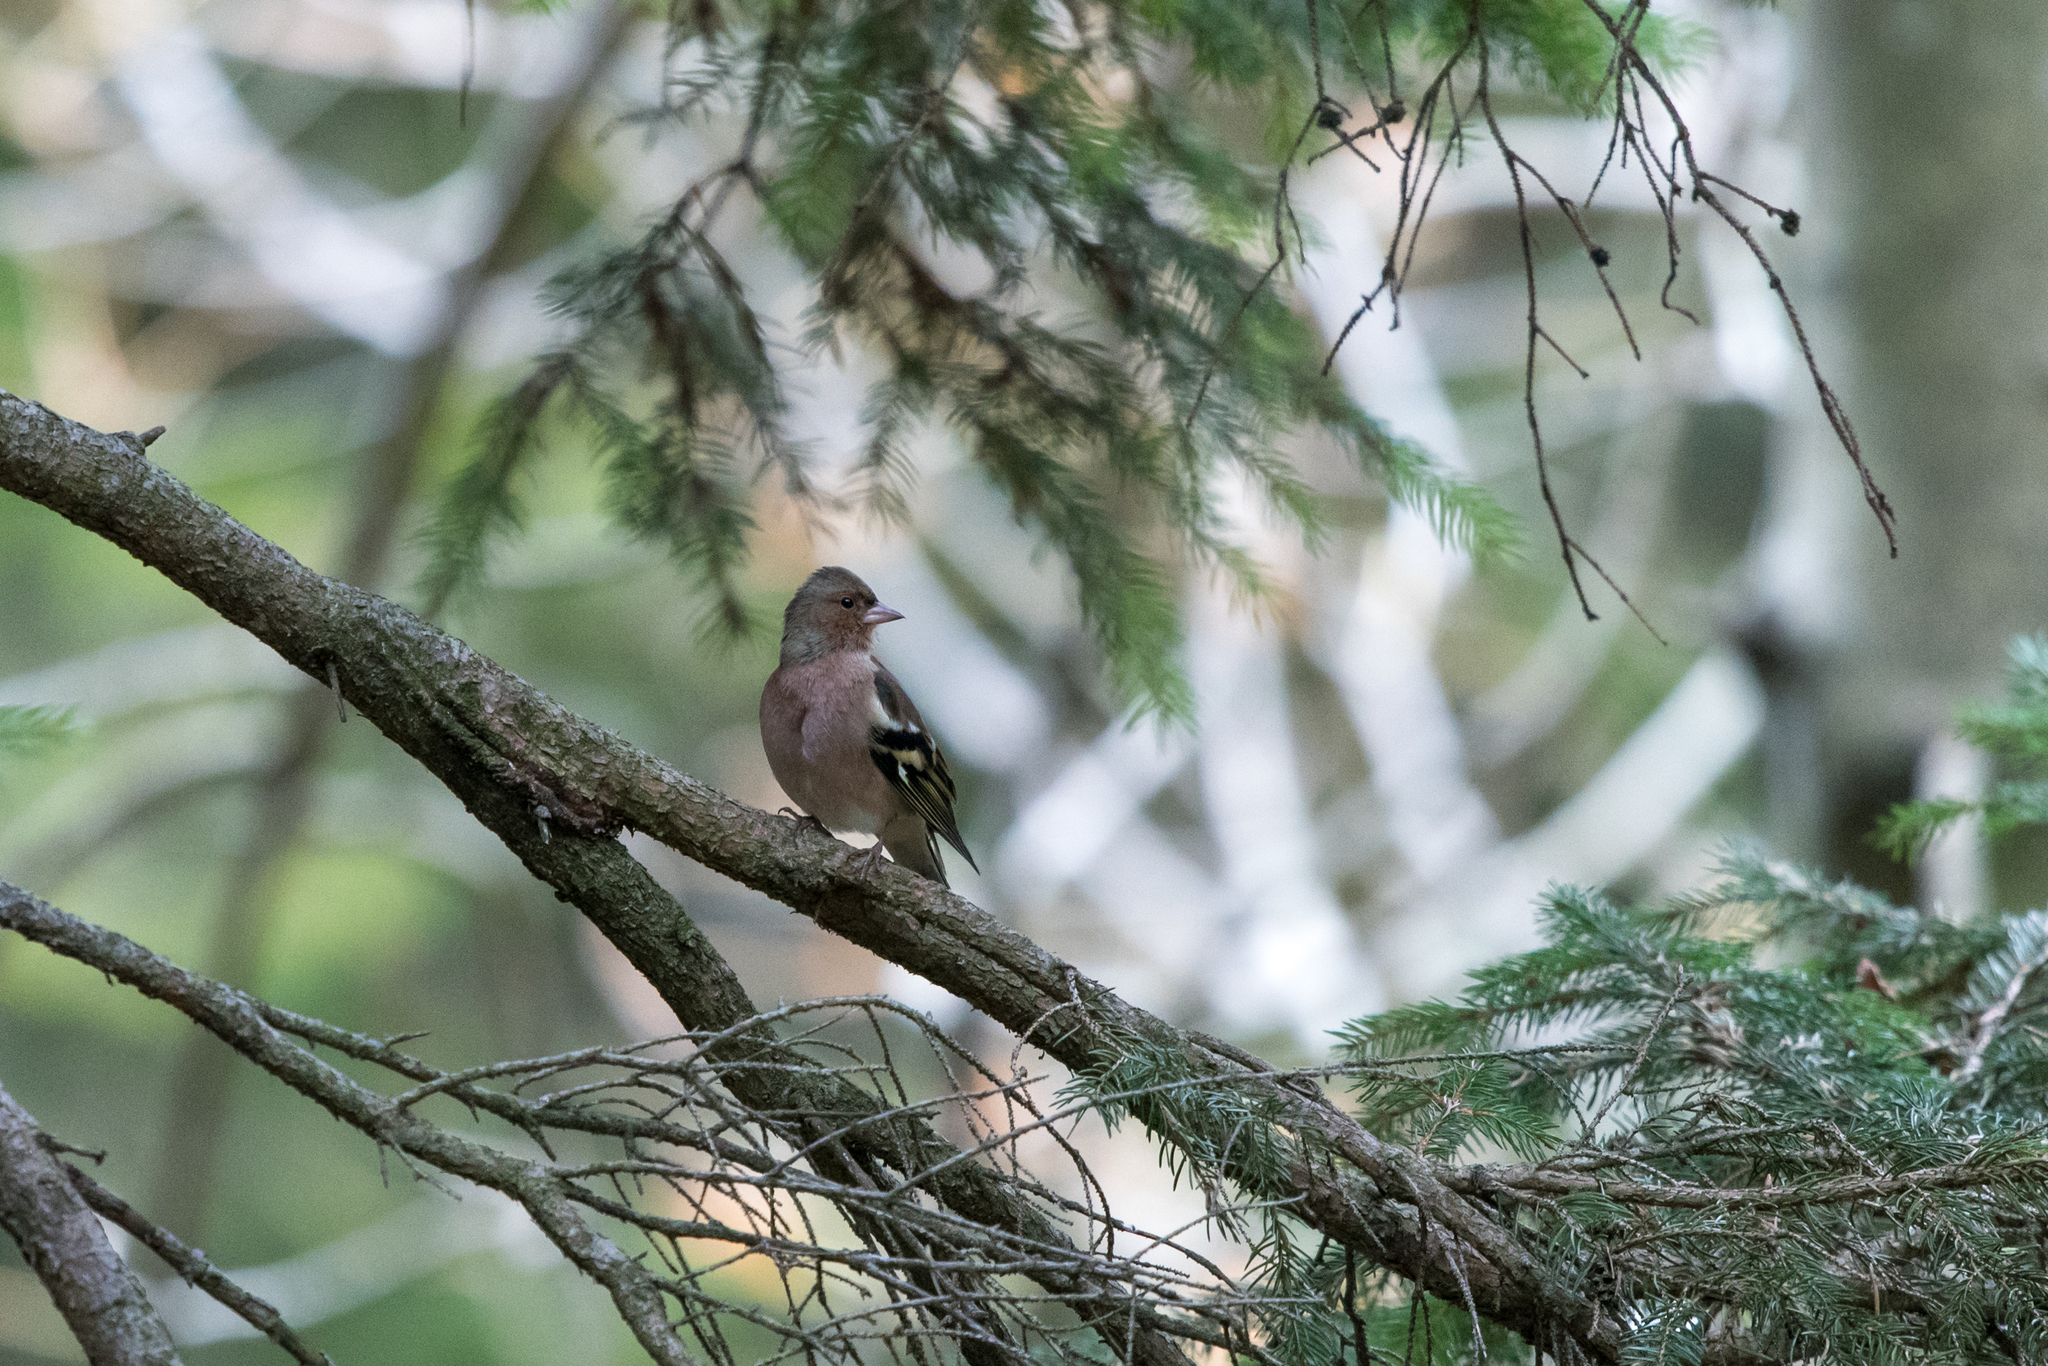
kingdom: Animalia
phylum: Chordata
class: Aves
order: Passeriformes
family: Fringillidae
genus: Fringilla
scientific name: Fringilla coelebs
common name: Common chaffinch
